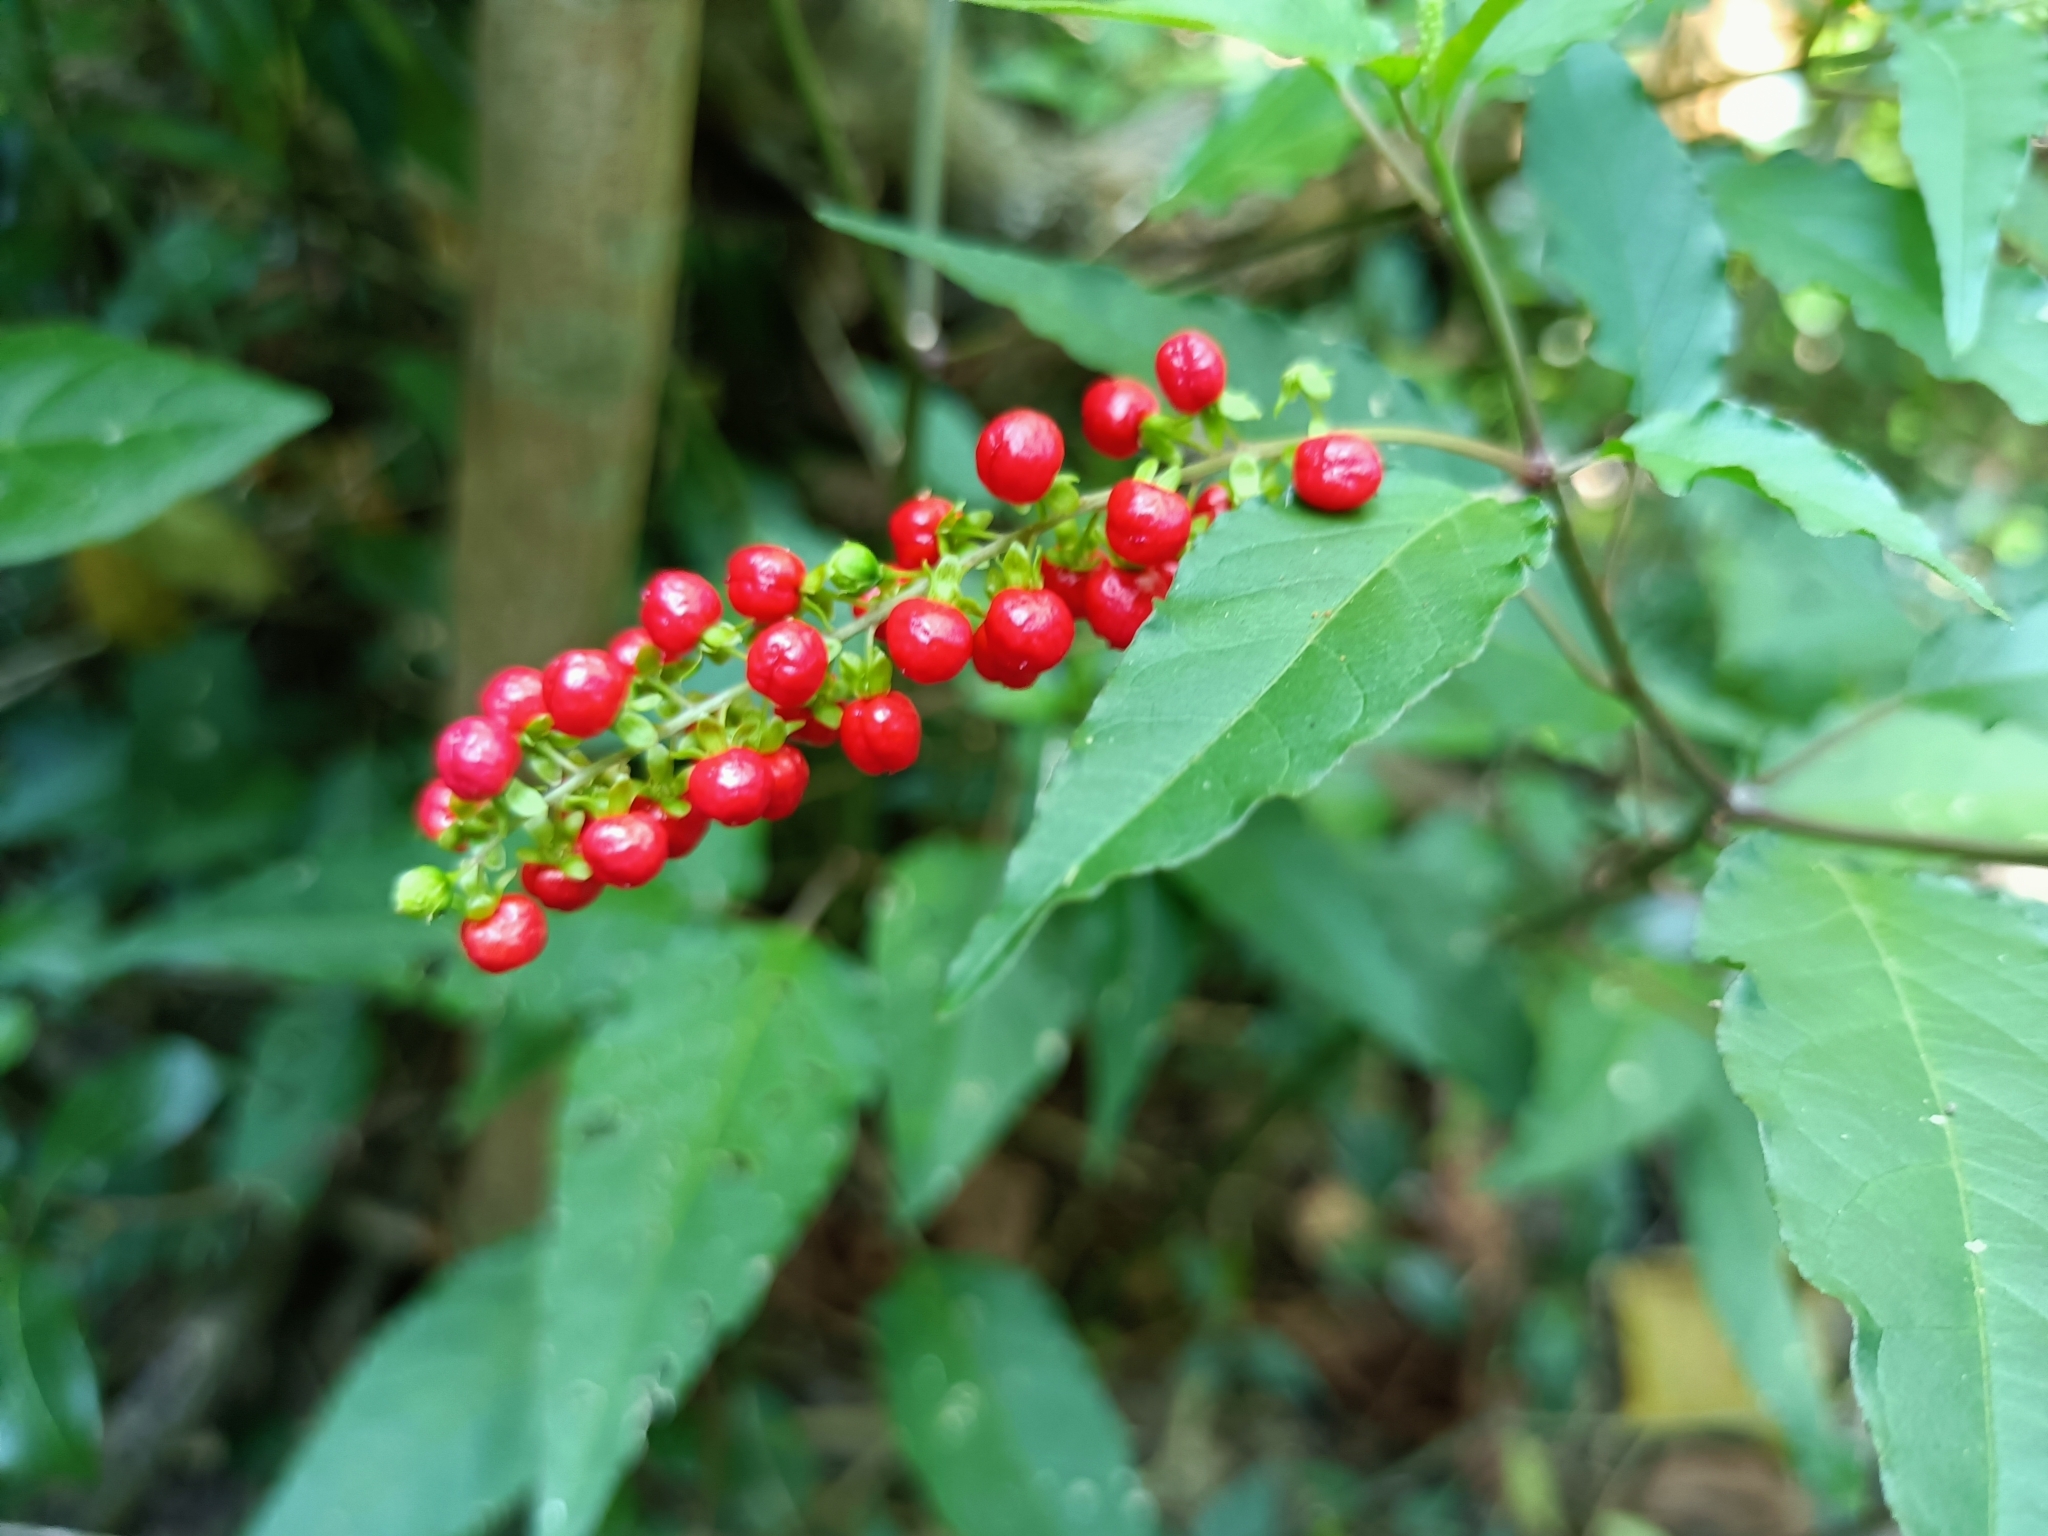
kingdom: Plantae
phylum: Tracheophyta
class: Magnoliopsida
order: Caryophyllales
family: Phytolaccaceae
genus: Rivina
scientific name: Rivina humilis
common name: Rougeplant
